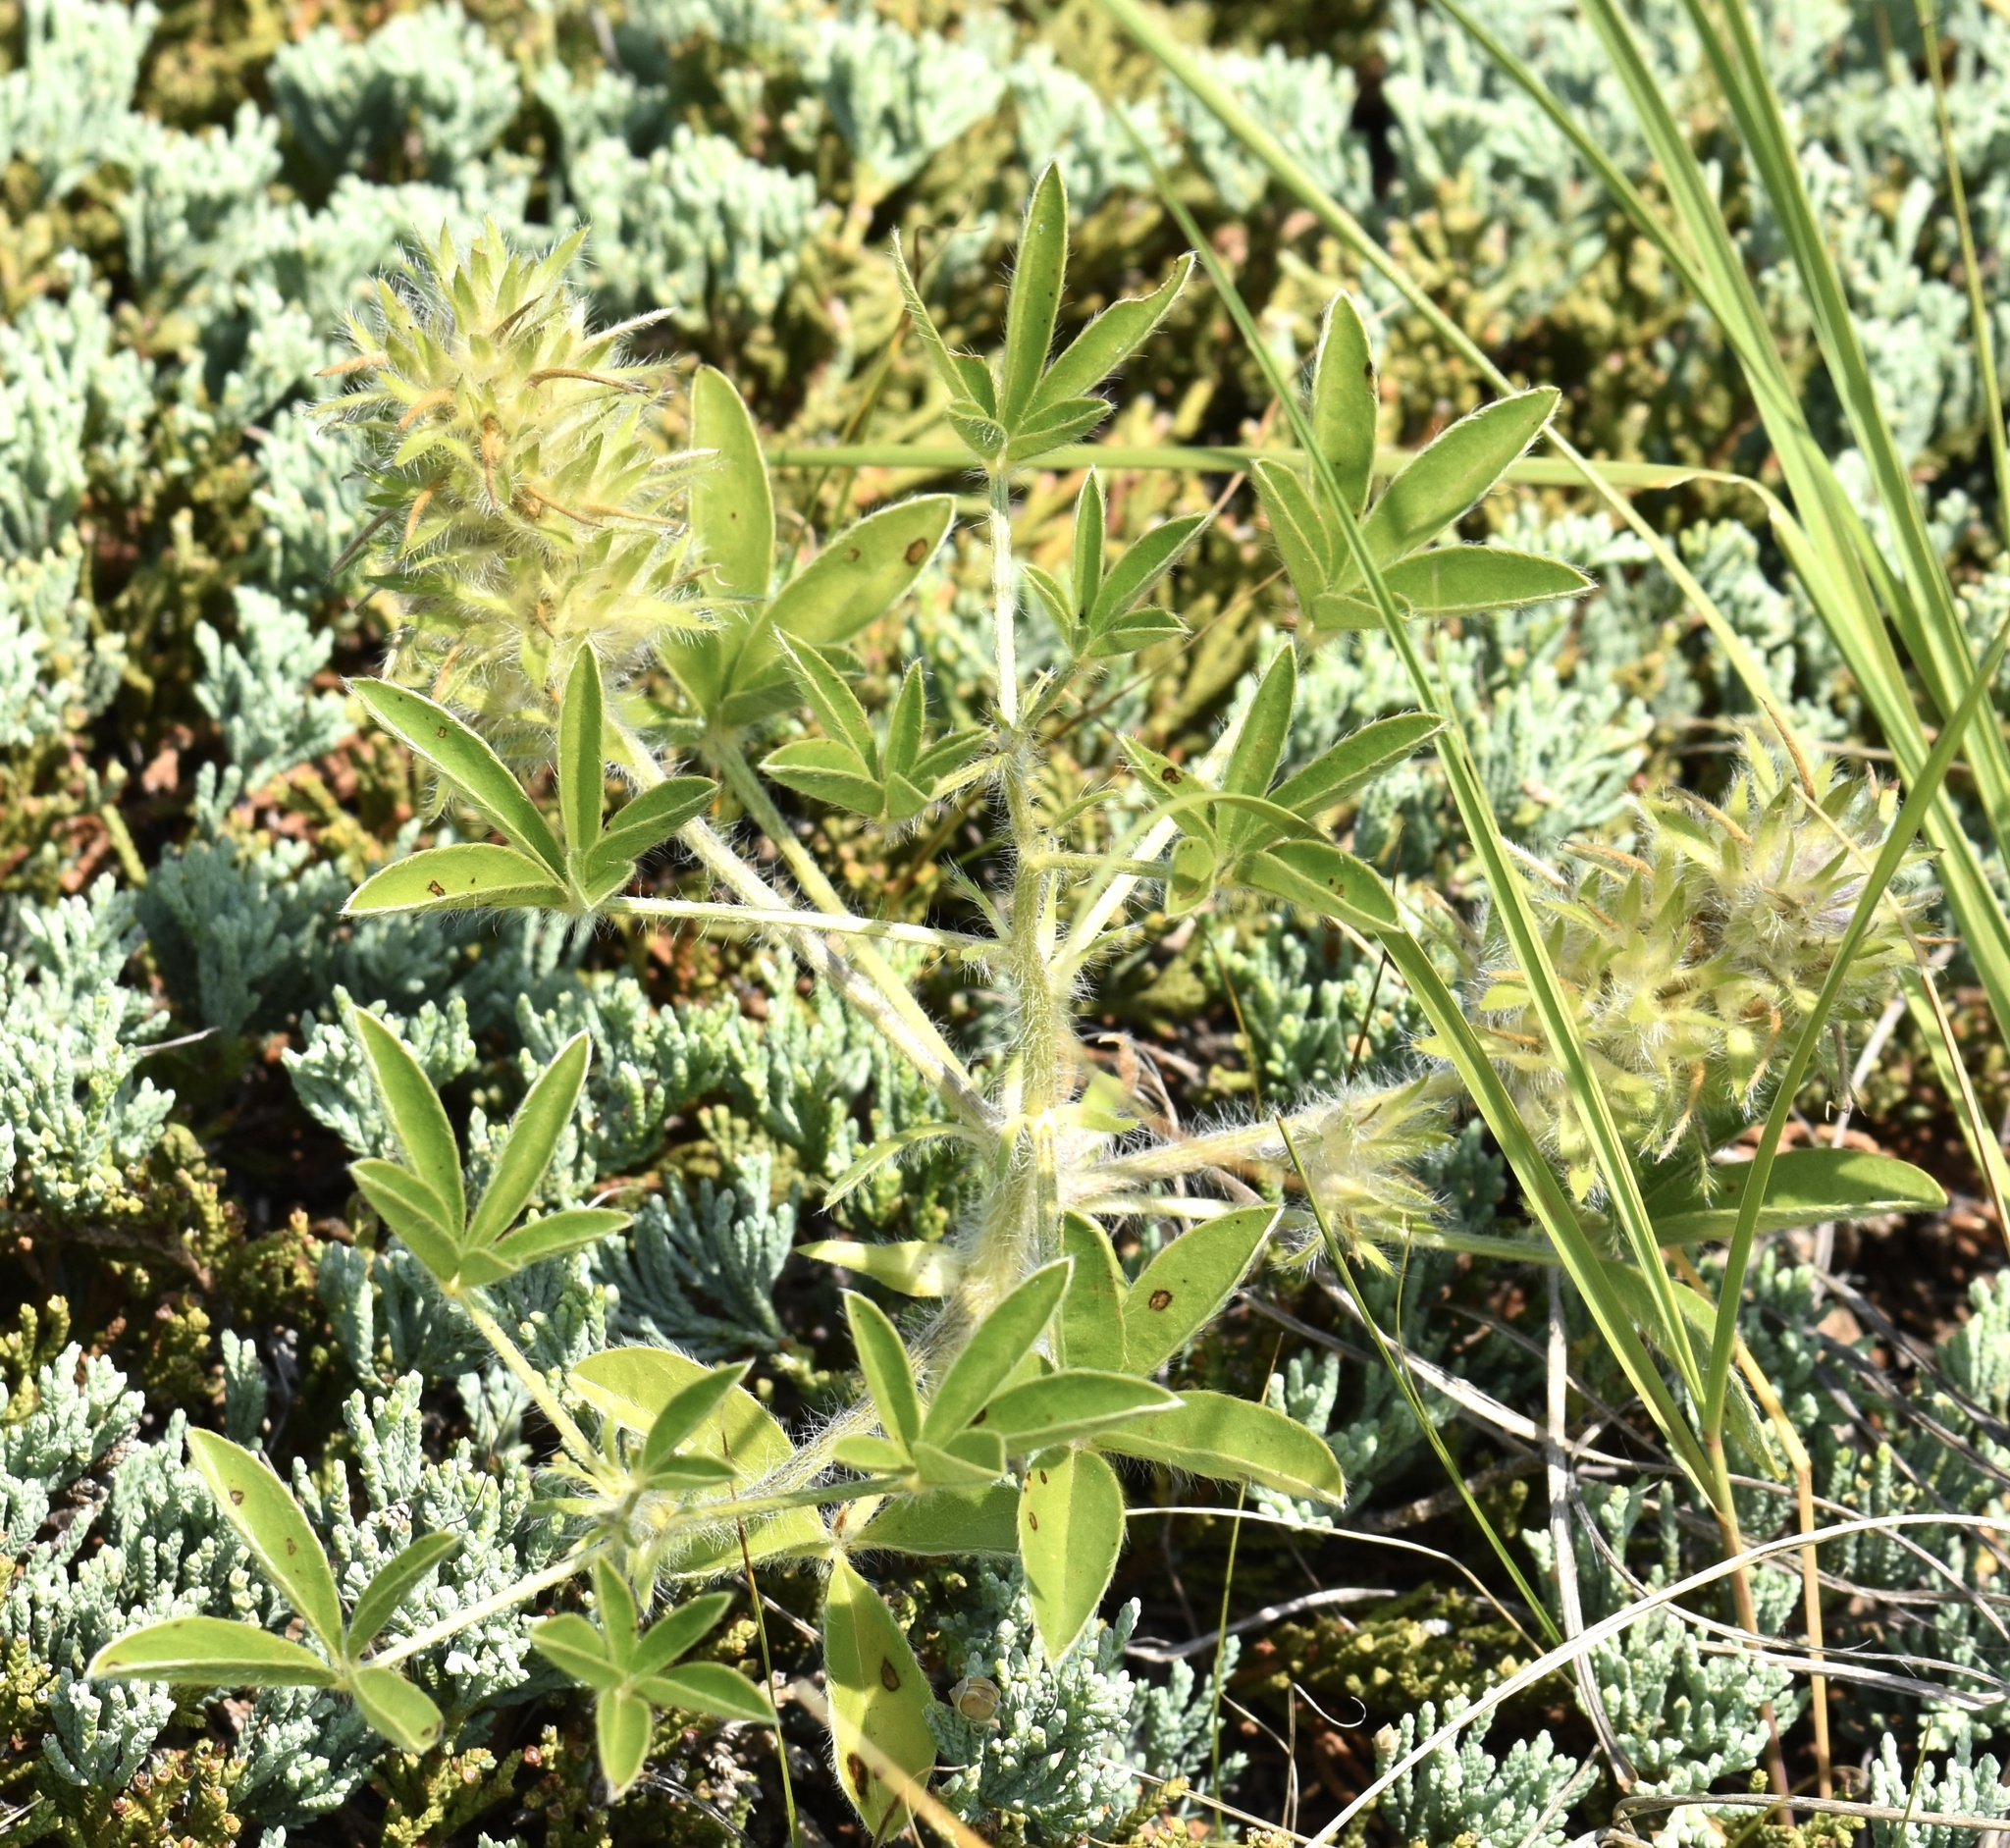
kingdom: Plantae
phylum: Tracheophyta
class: Magnoliopsida
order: Fabales
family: Fabaceae
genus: Pediomelum
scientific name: Pediomelum esculentum
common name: Indian-turnip
